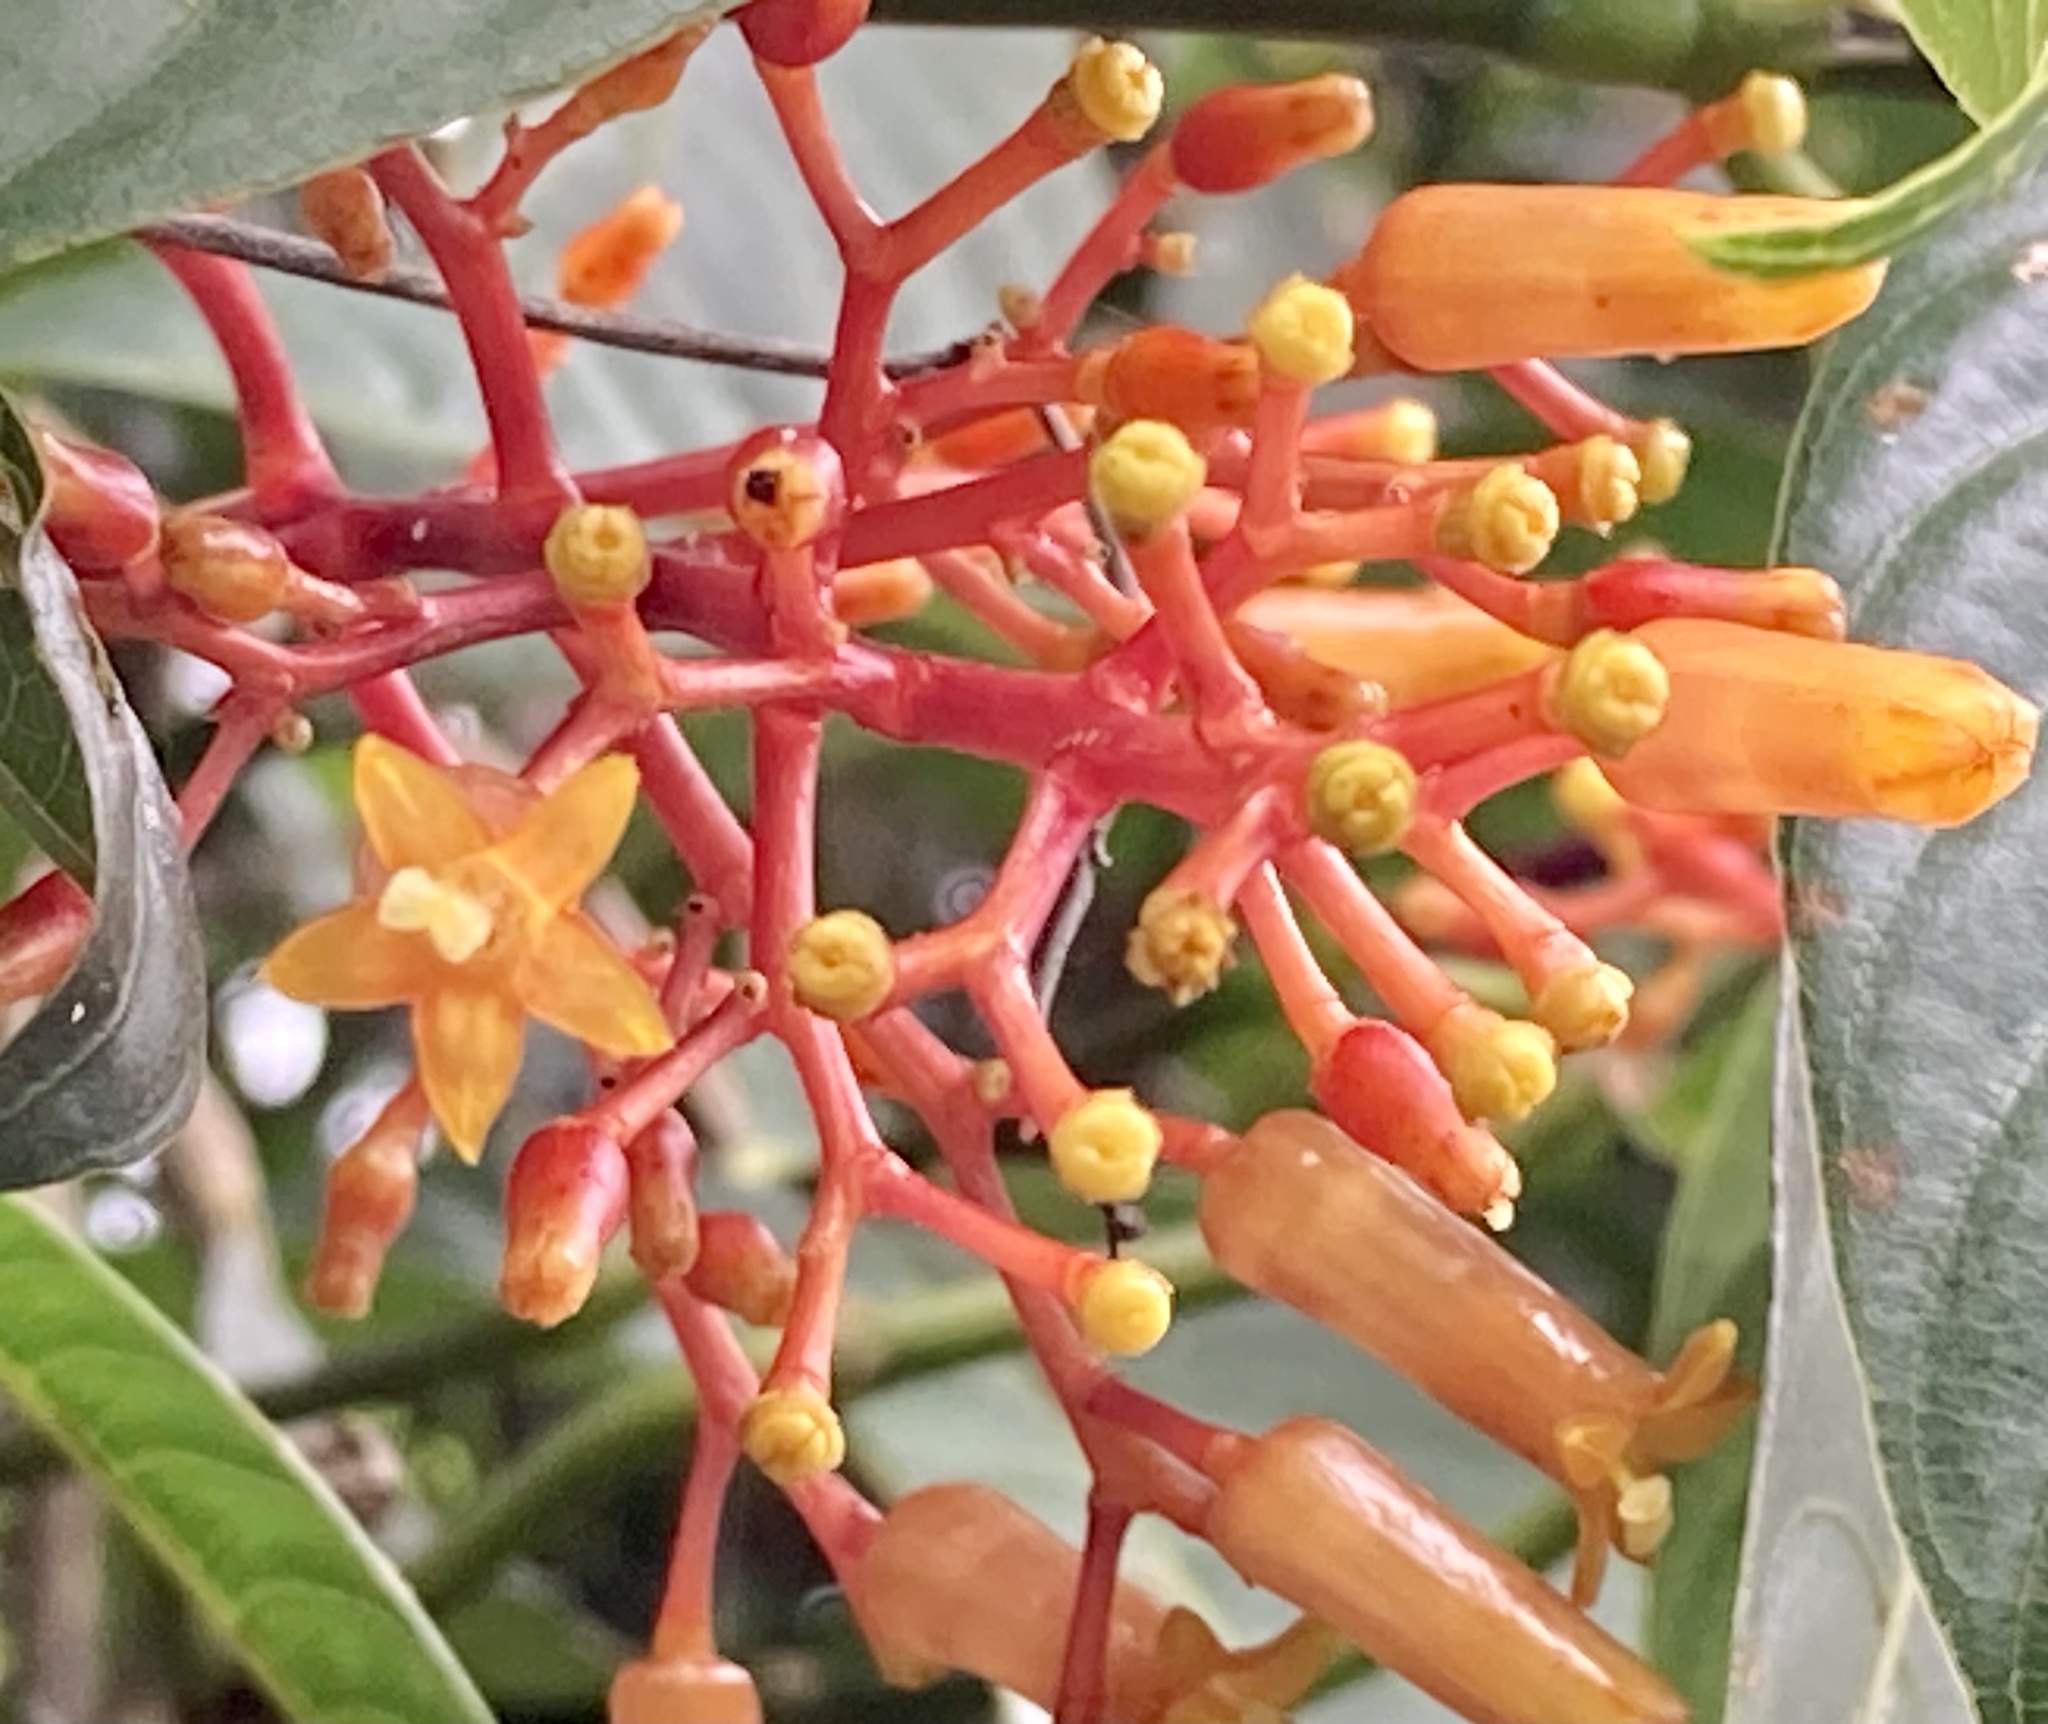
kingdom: Plantae
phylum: Tracheophyta
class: Magnoliopsida
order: Gentianales
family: Rubiaceae
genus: Palicourea
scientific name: Palicourea thyrsiflora
